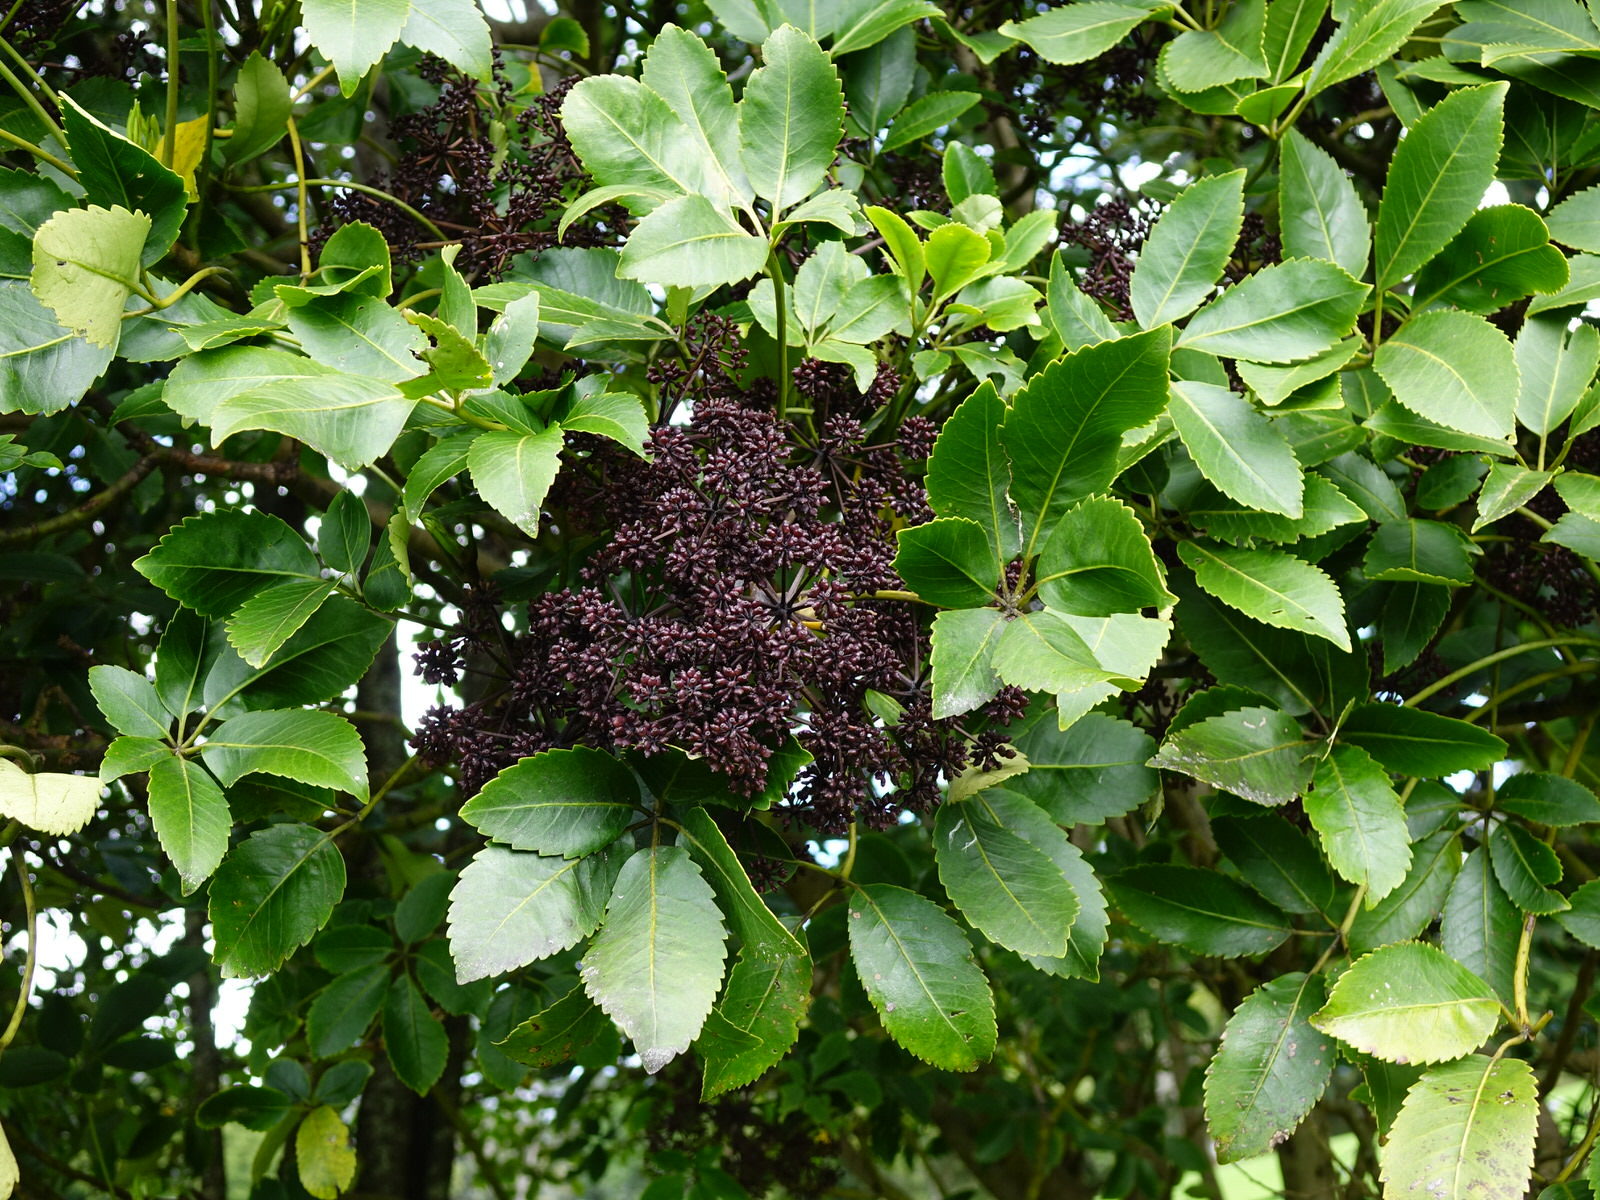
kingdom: Plantae
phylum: Tracheophyta
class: Magnoliopsida
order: Apiales
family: Araliaceae
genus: Neopanax
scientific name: Neopanax arboreus
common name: Five-fingers
